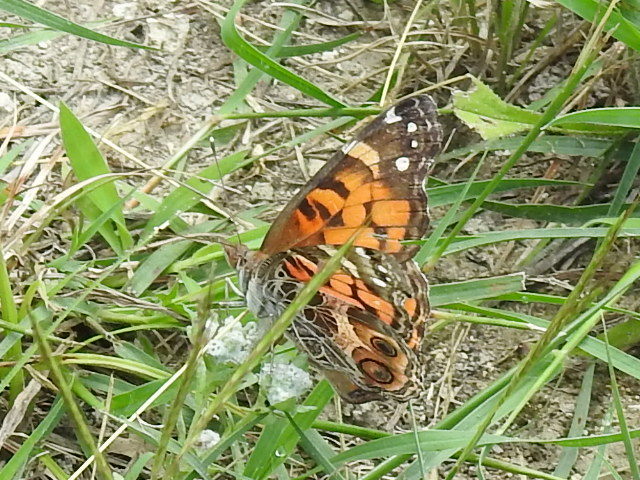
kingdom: Animalia
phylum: Arthropoda
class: Insecta
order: Lepidoptera
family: Nymphalidae
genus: Vanessa
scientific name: Vanessa virginiensis
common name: American lady
